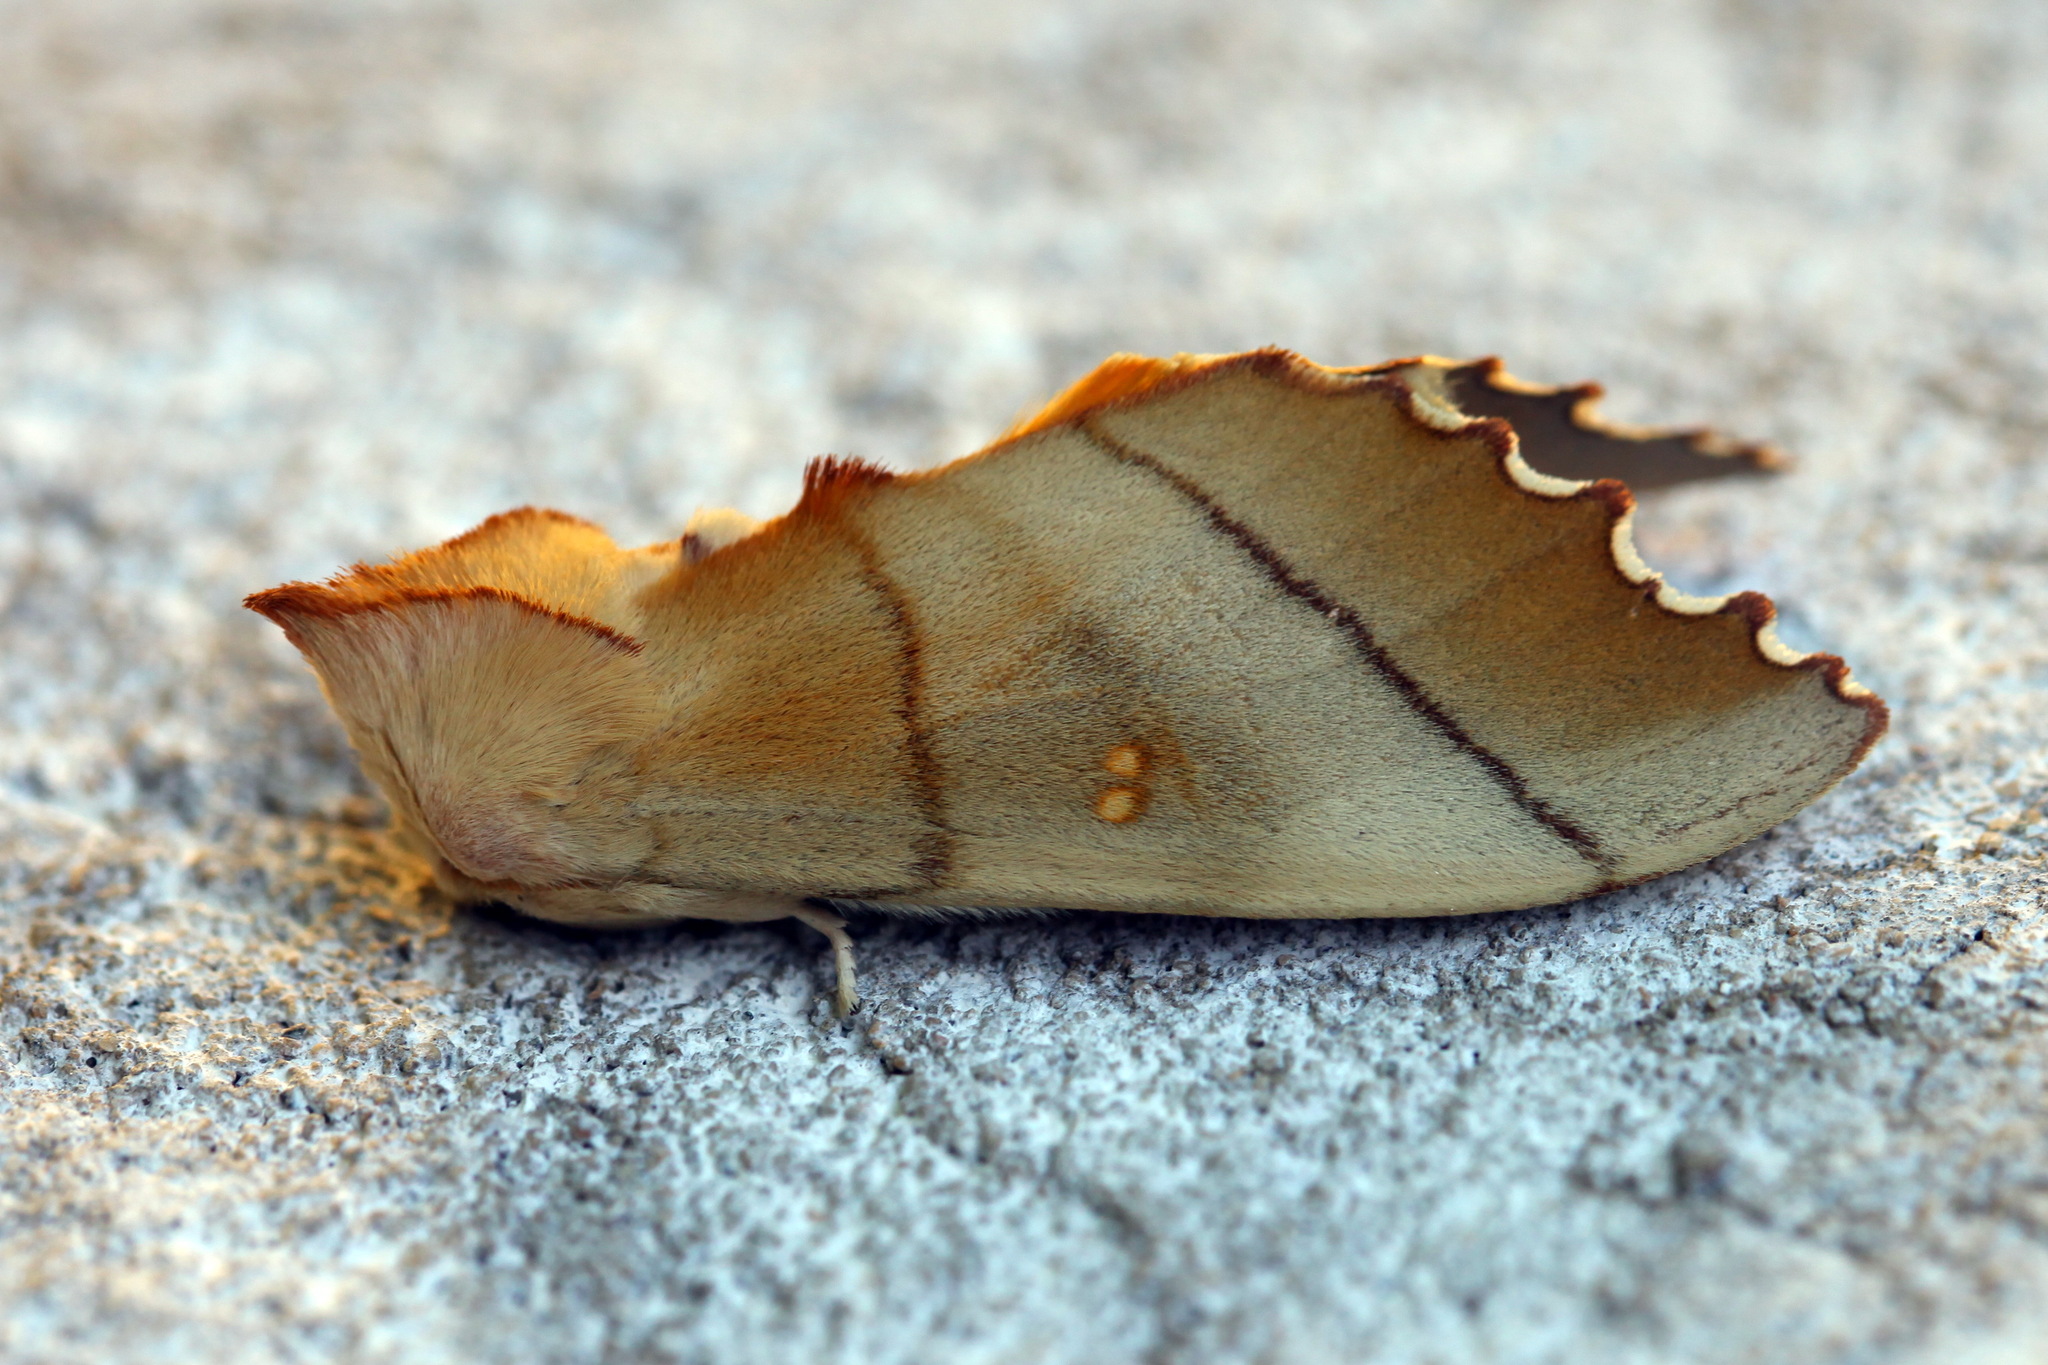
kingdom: Animalia
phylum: Arthropoda
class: Insecta
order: Lepidoptera
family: Notodontidae
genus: Euhampsonia
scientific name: Euhampsonia cristata
